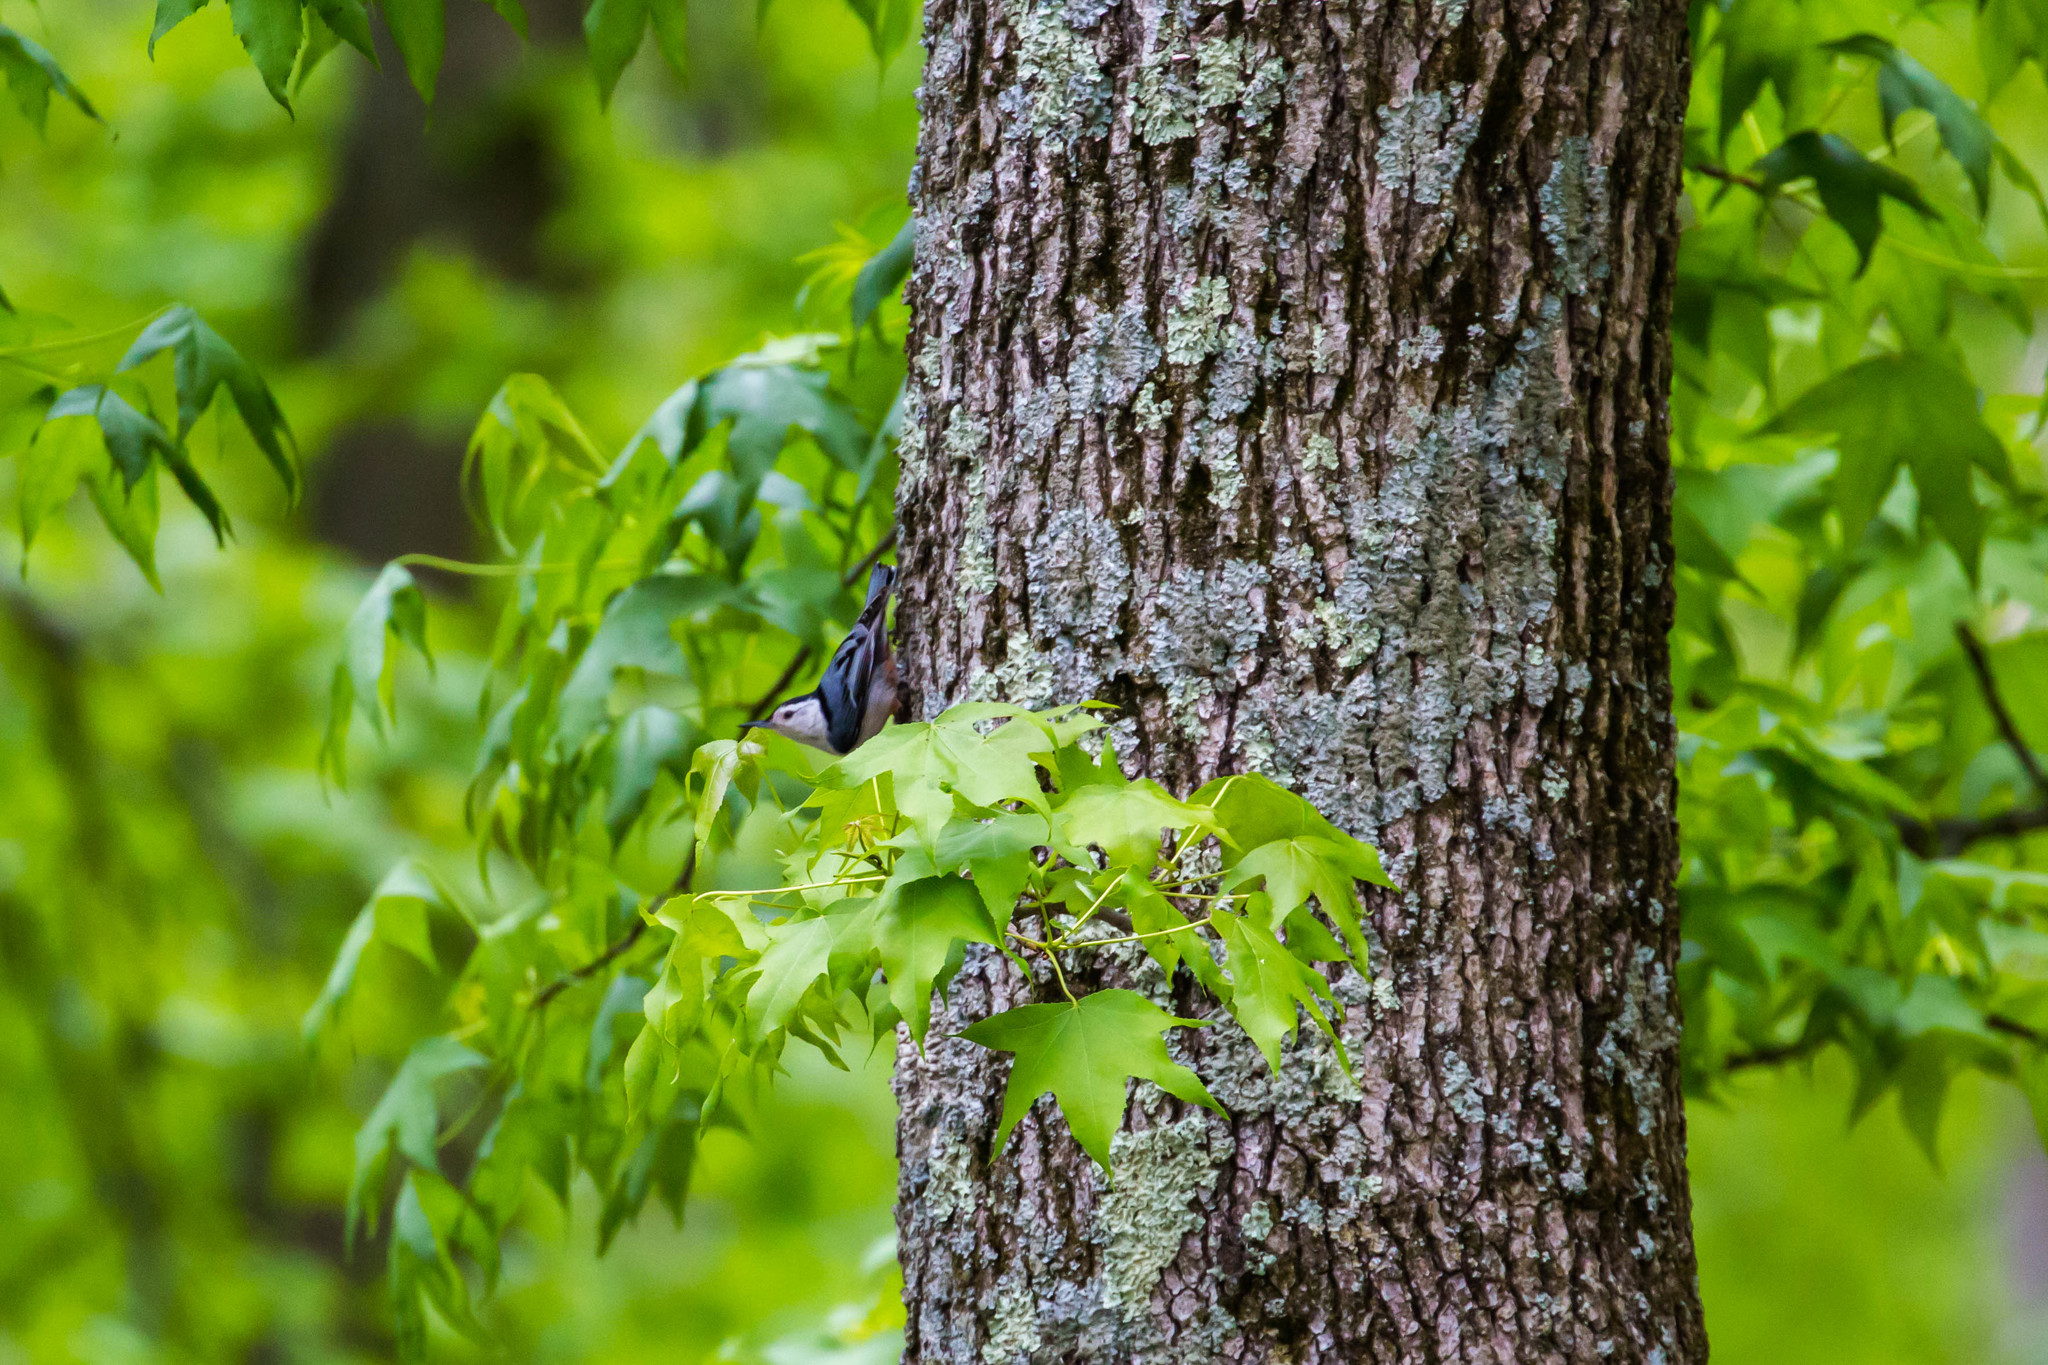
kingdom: Animalia
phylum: Chordata
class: Aves
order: Passeriformes
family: Sittidae
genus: Sitta
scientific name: Sitta carolinensis
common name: White-breasted nuthatch
